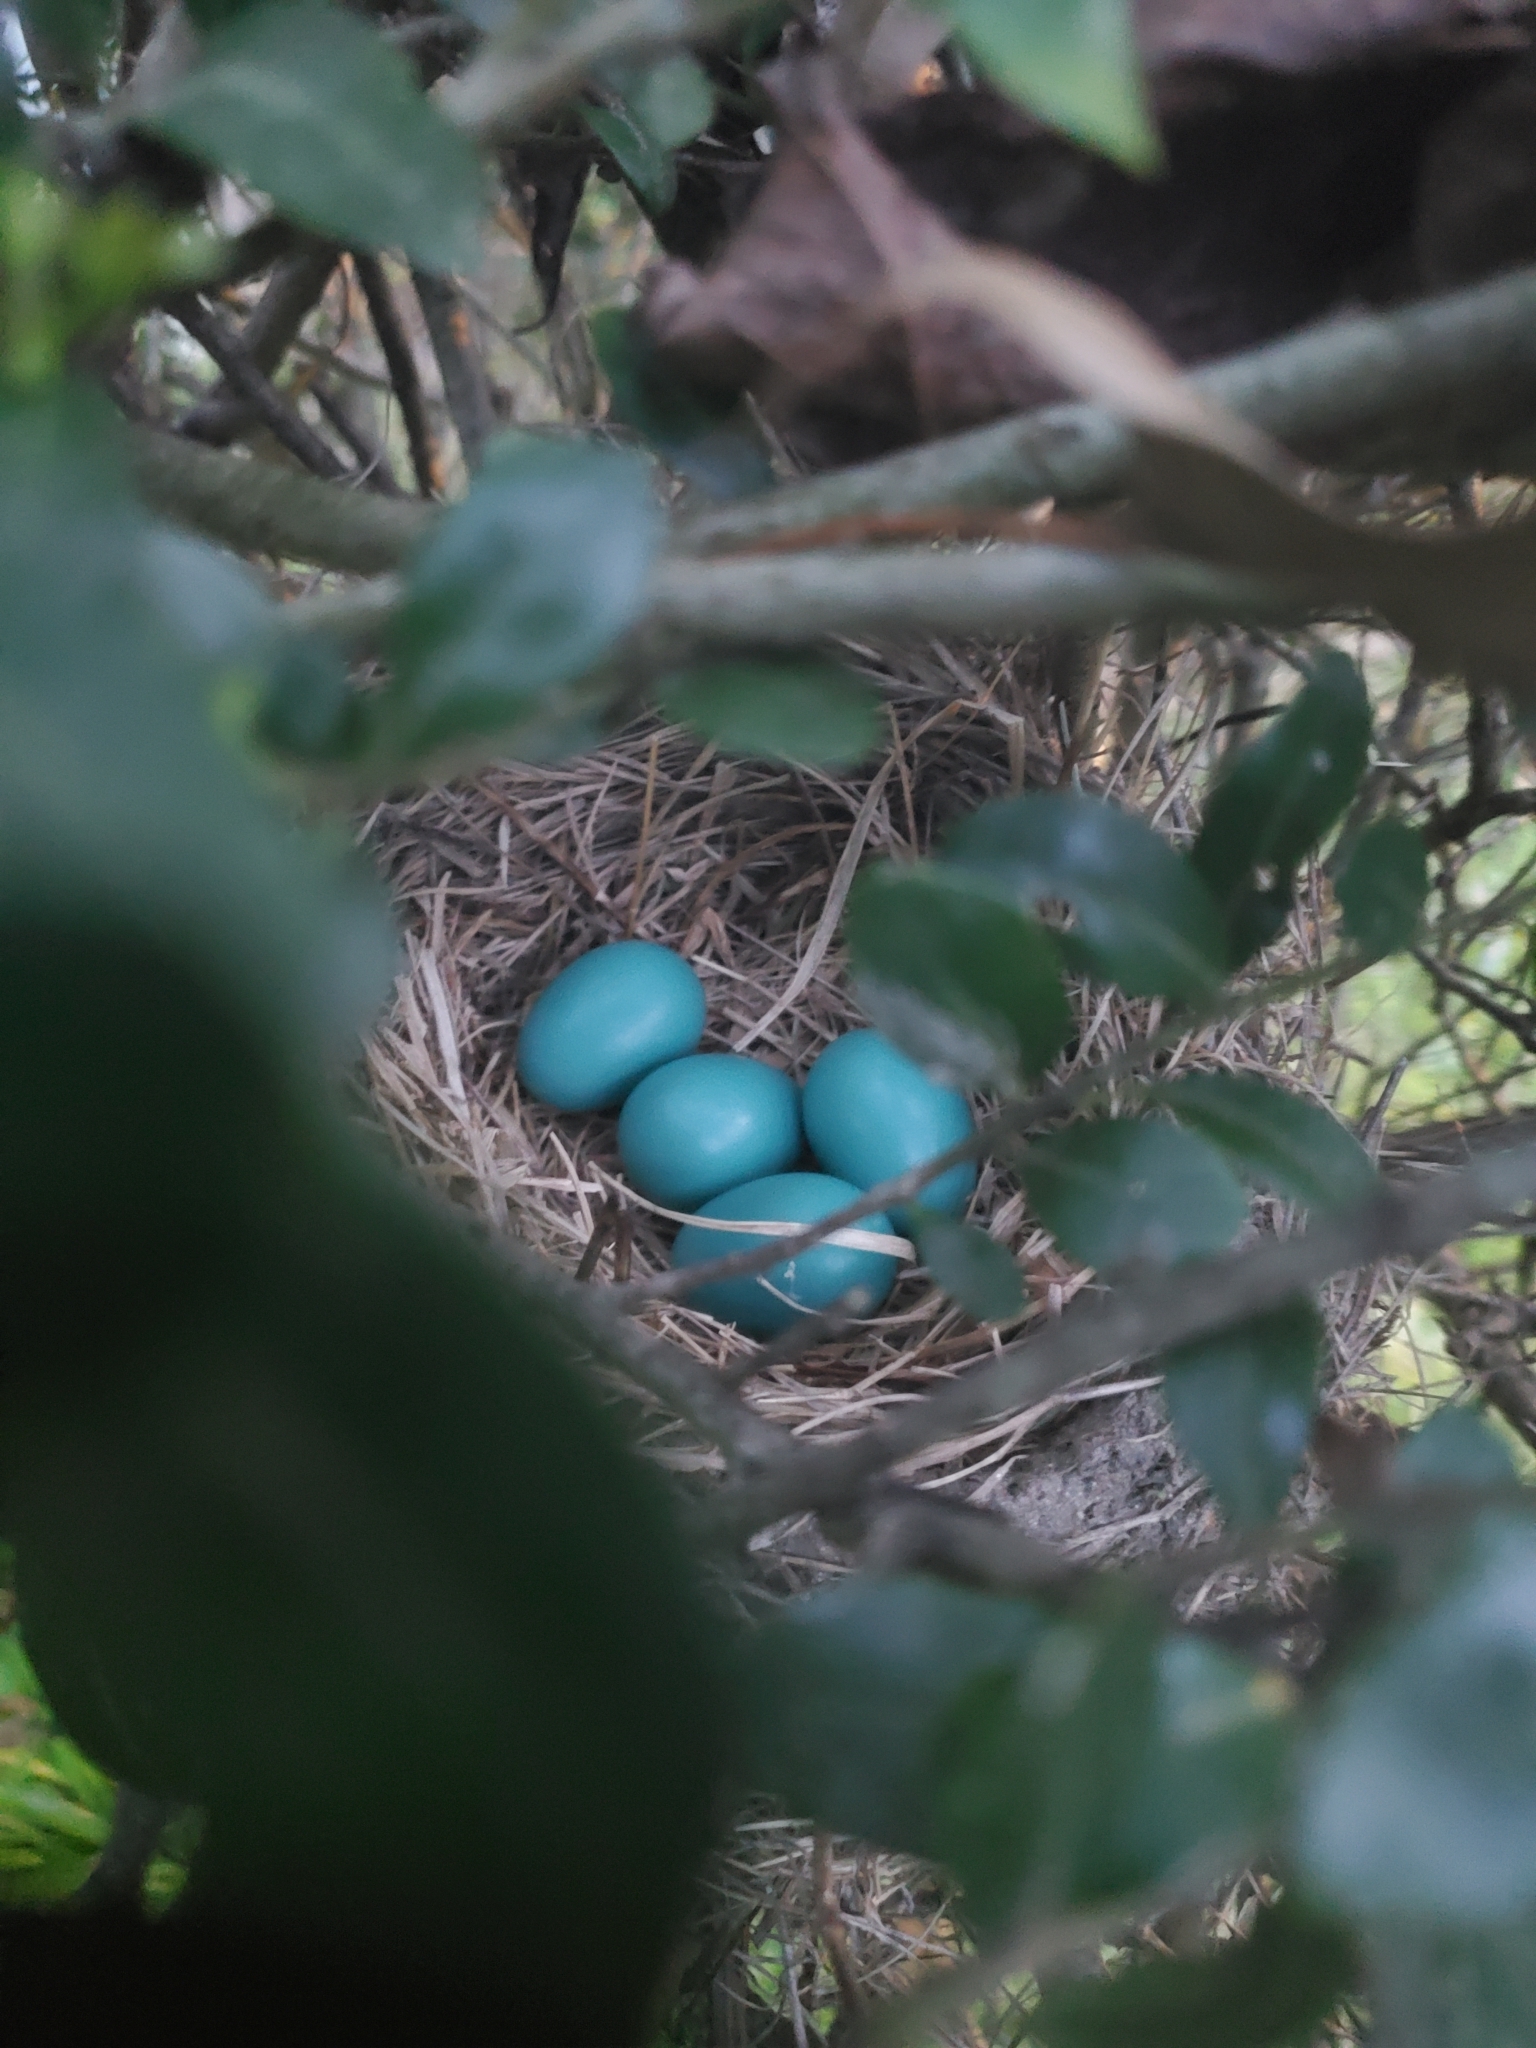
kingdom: Animalia
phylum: Chordata
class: Aves
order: Passeriformes
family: Turdidae
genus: Turdus
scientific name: Turdus migratorius
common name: American robin
